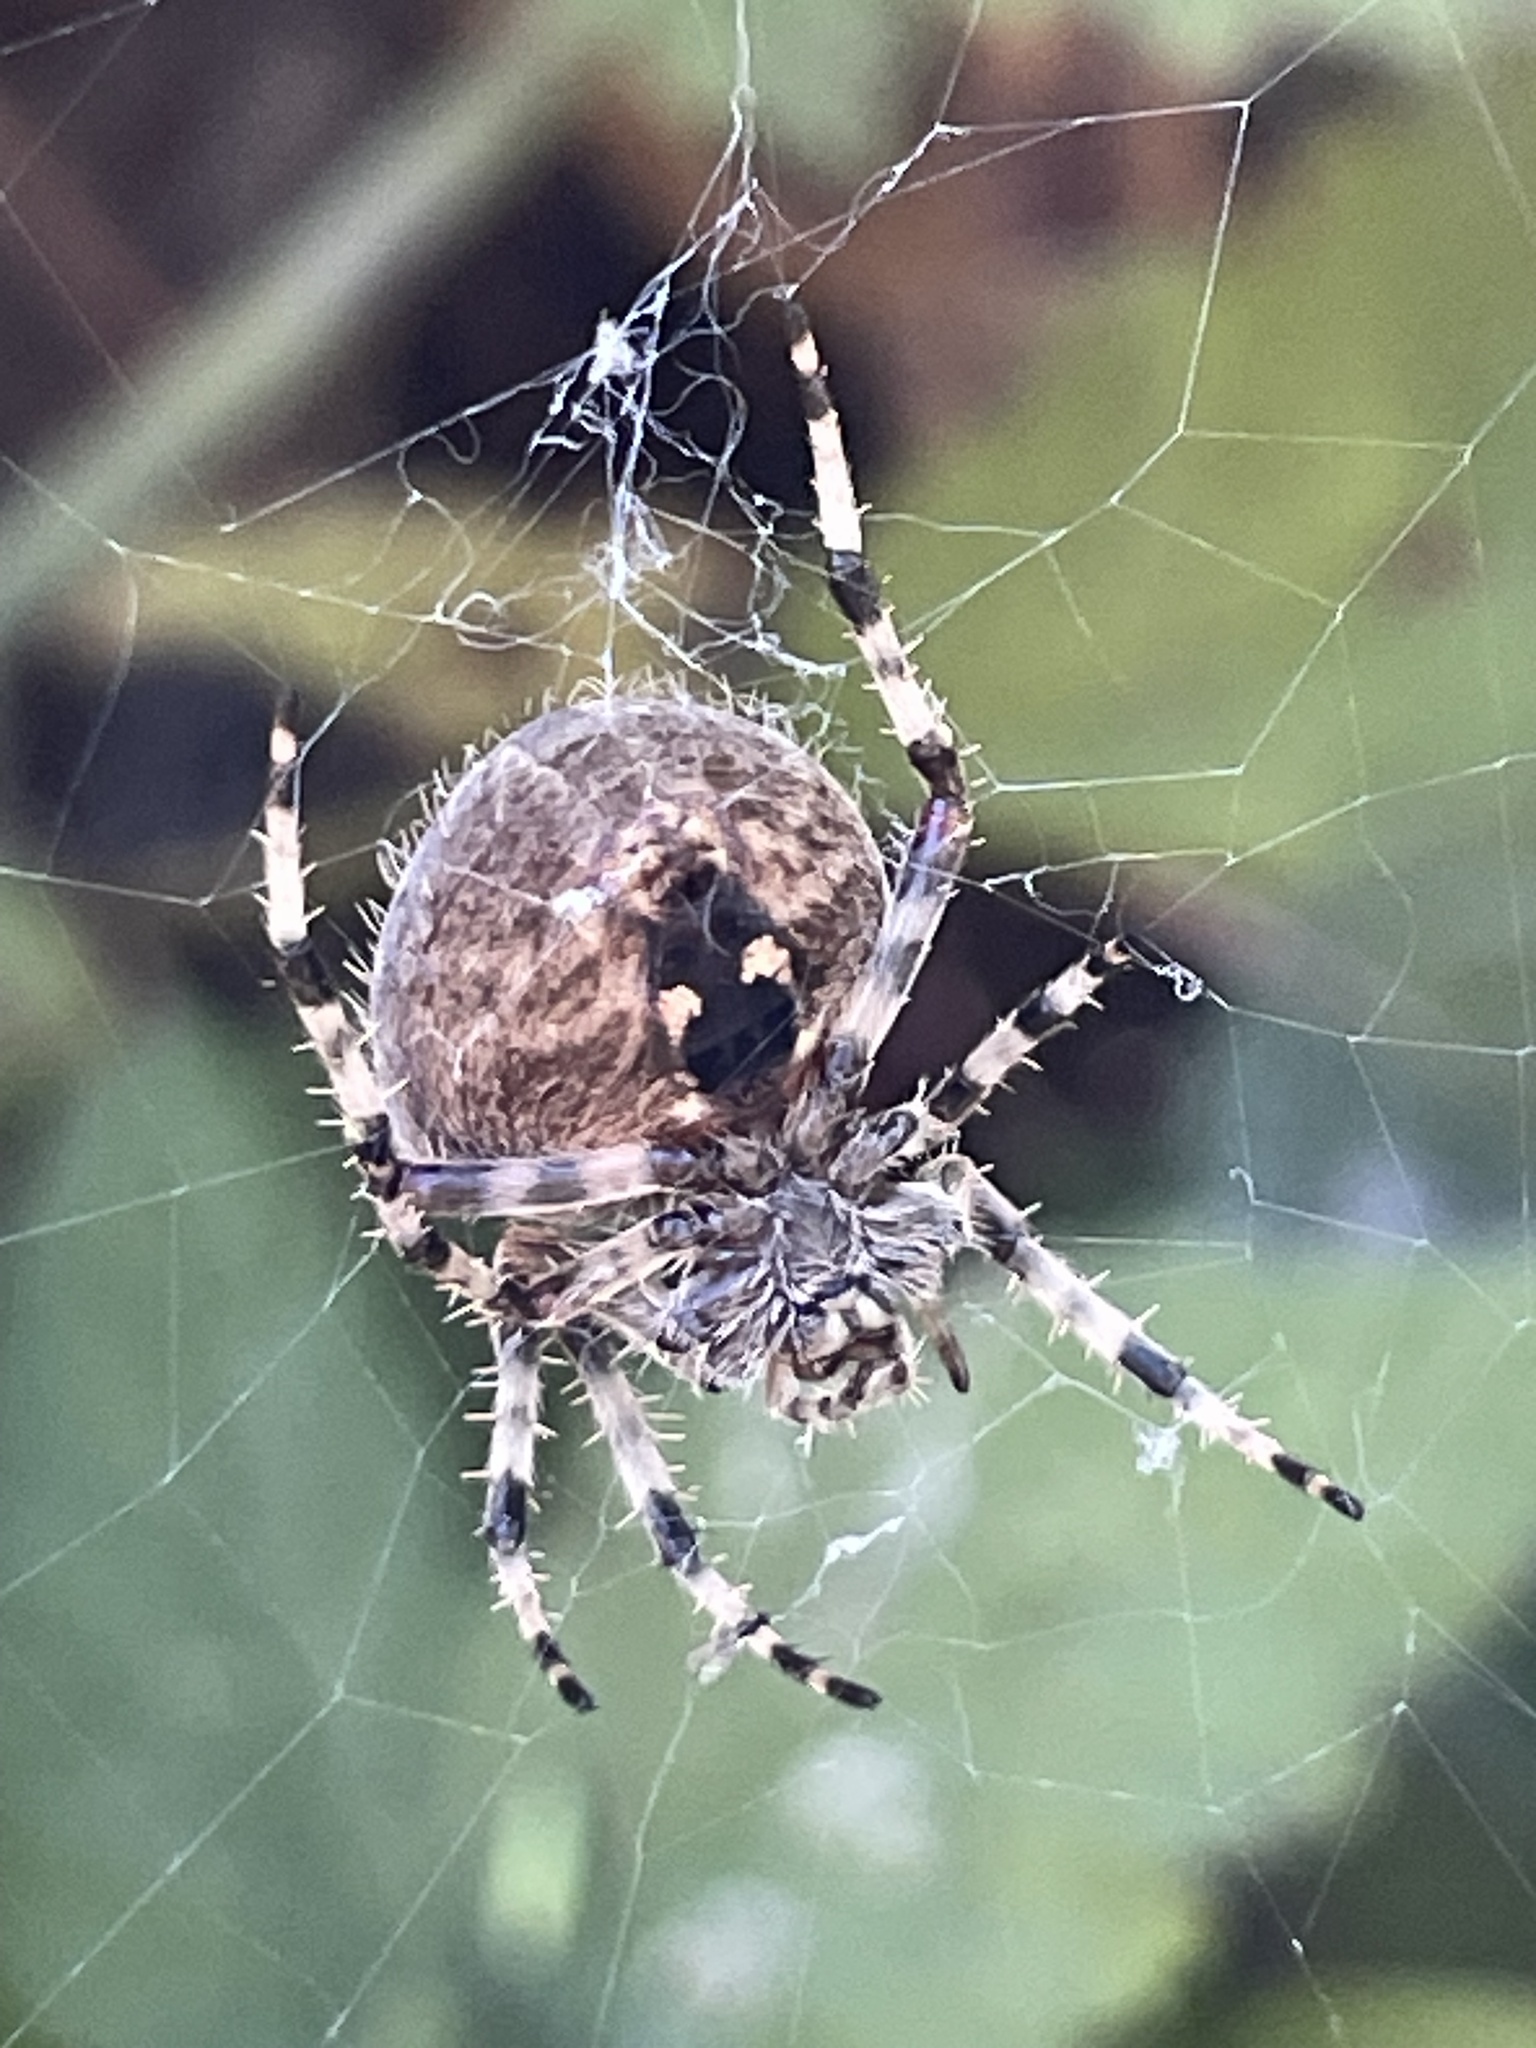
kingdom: Animalia
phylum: Arthropoda
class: Arachnida
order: Araneae
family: Araneidae
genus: Araneus
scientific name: Araneus gemma
